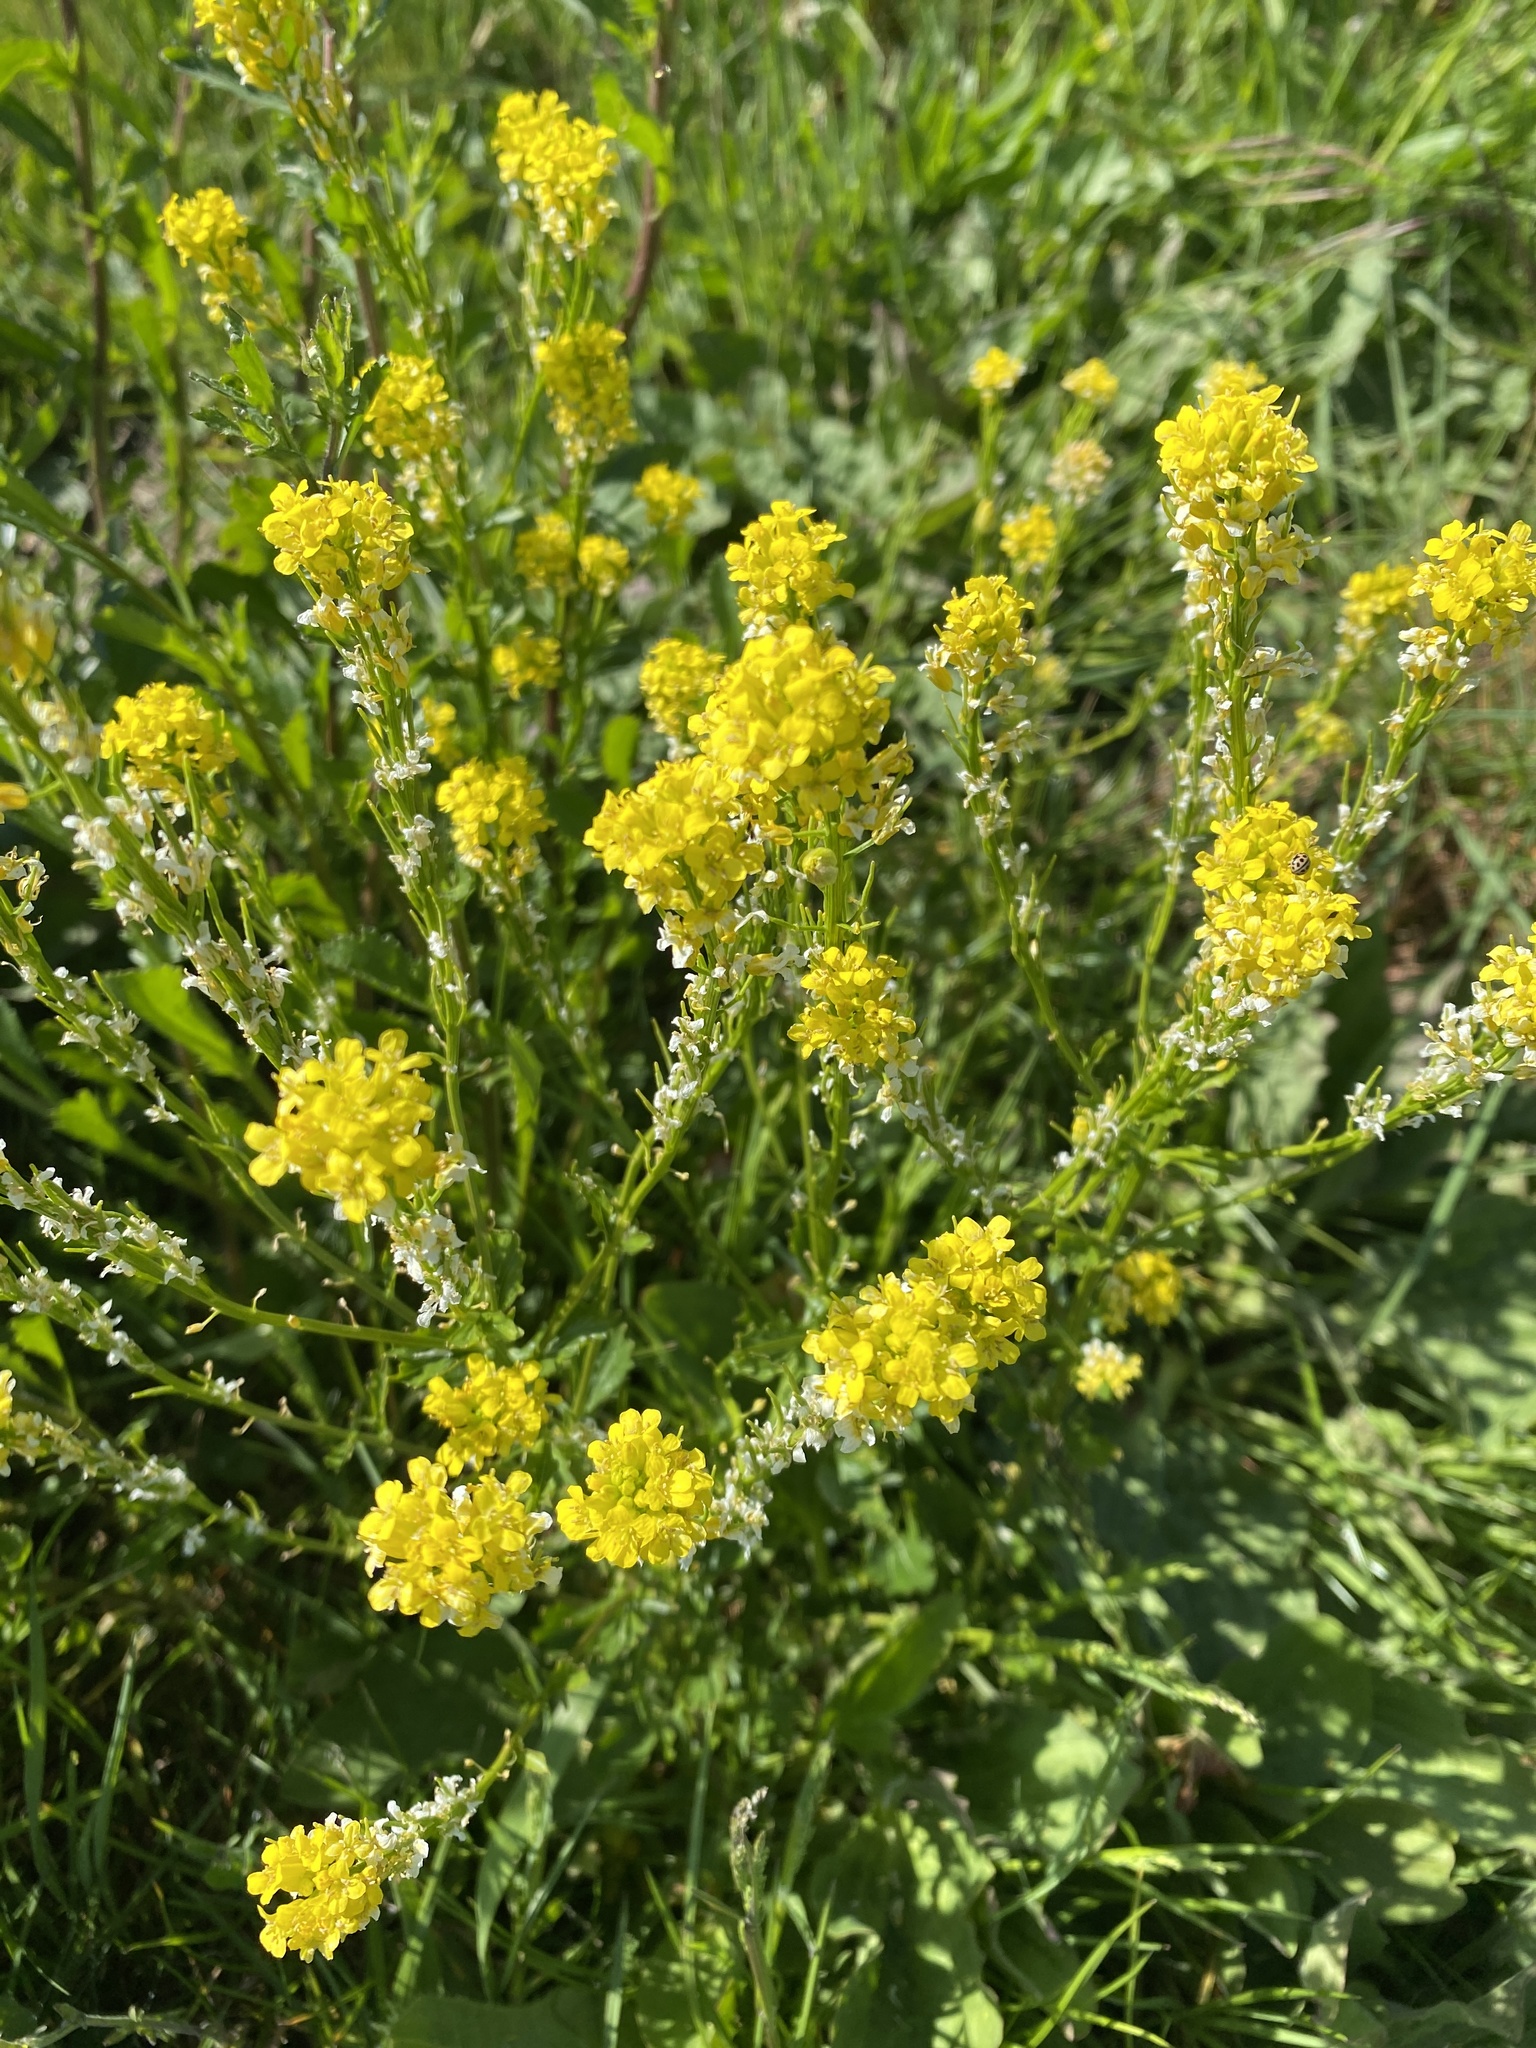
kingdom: Plantae
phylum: Tracheophyta
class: Magnoliopsida
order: Brassicales
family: Brassicaceae
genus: Barbarea
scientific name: Barbarea vulgaris
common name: Cressy-greens
